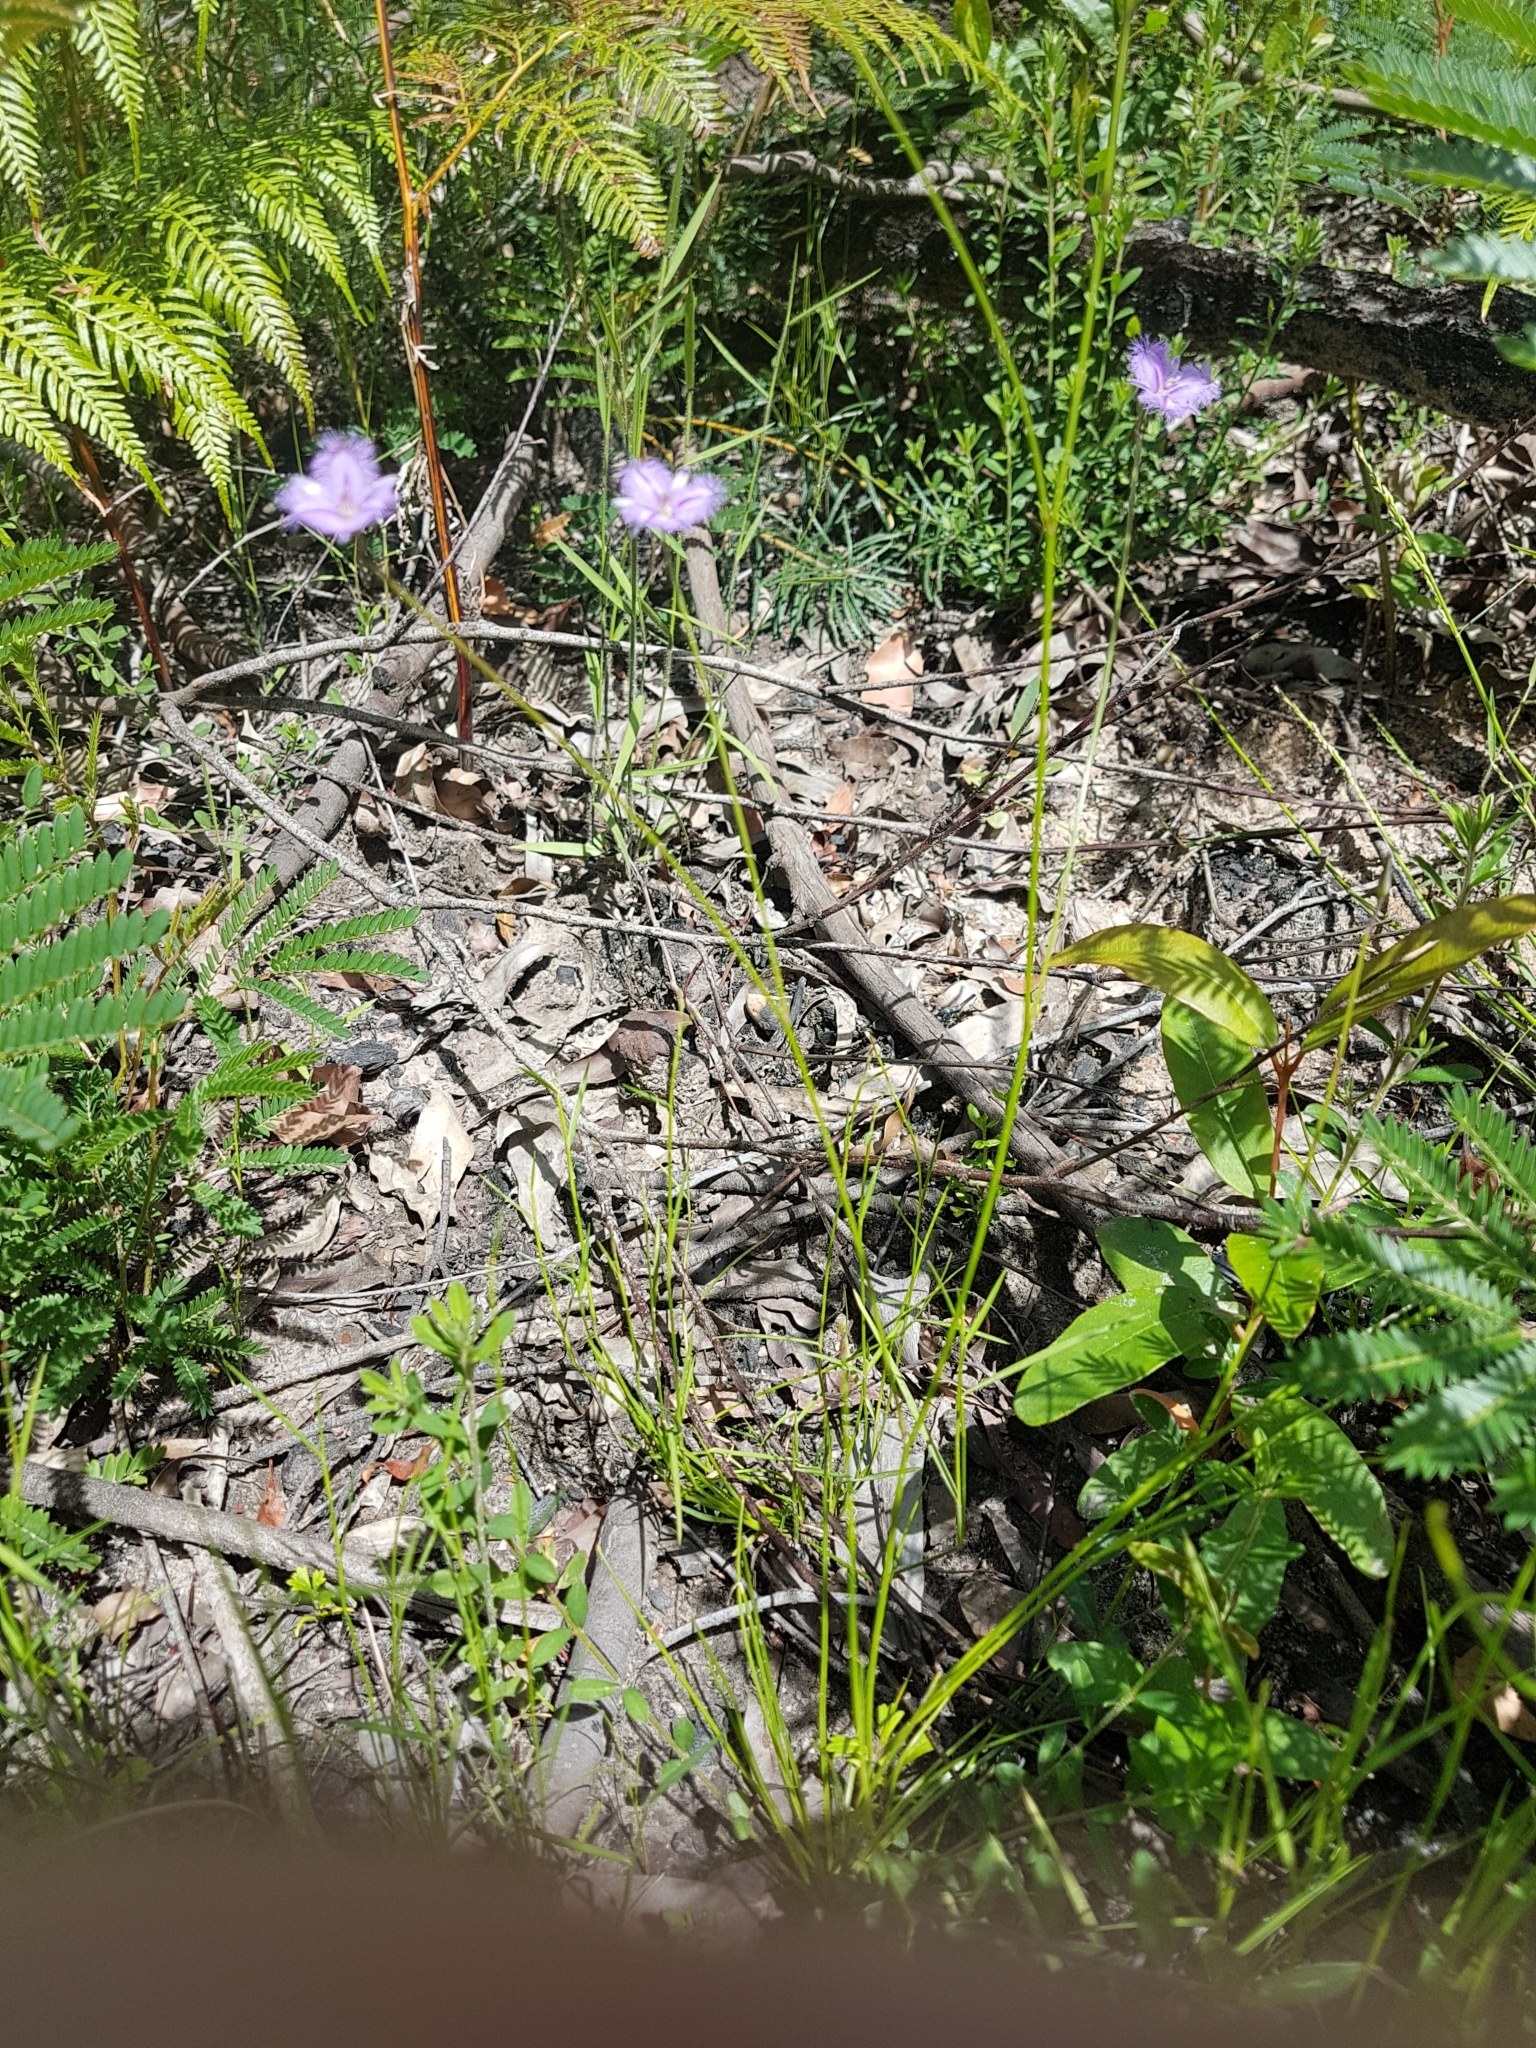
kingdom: Plantae
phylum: Tracheophyta
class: Liliopsida
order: Asparagales
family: Asparagaceae
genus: Thysanotus
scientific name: Thysanotus juncifolius
